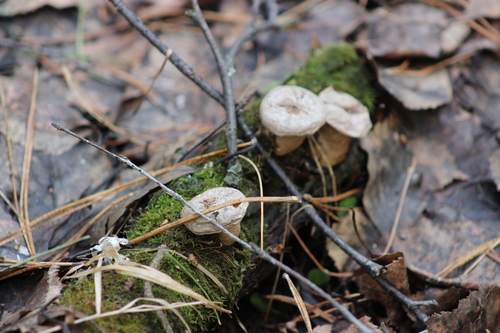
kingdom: Fungi
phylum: Basidiomycota
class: Agaricomycetes
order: Agaricales
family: Lycoperdaceae
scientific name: Lycoperdaceae
